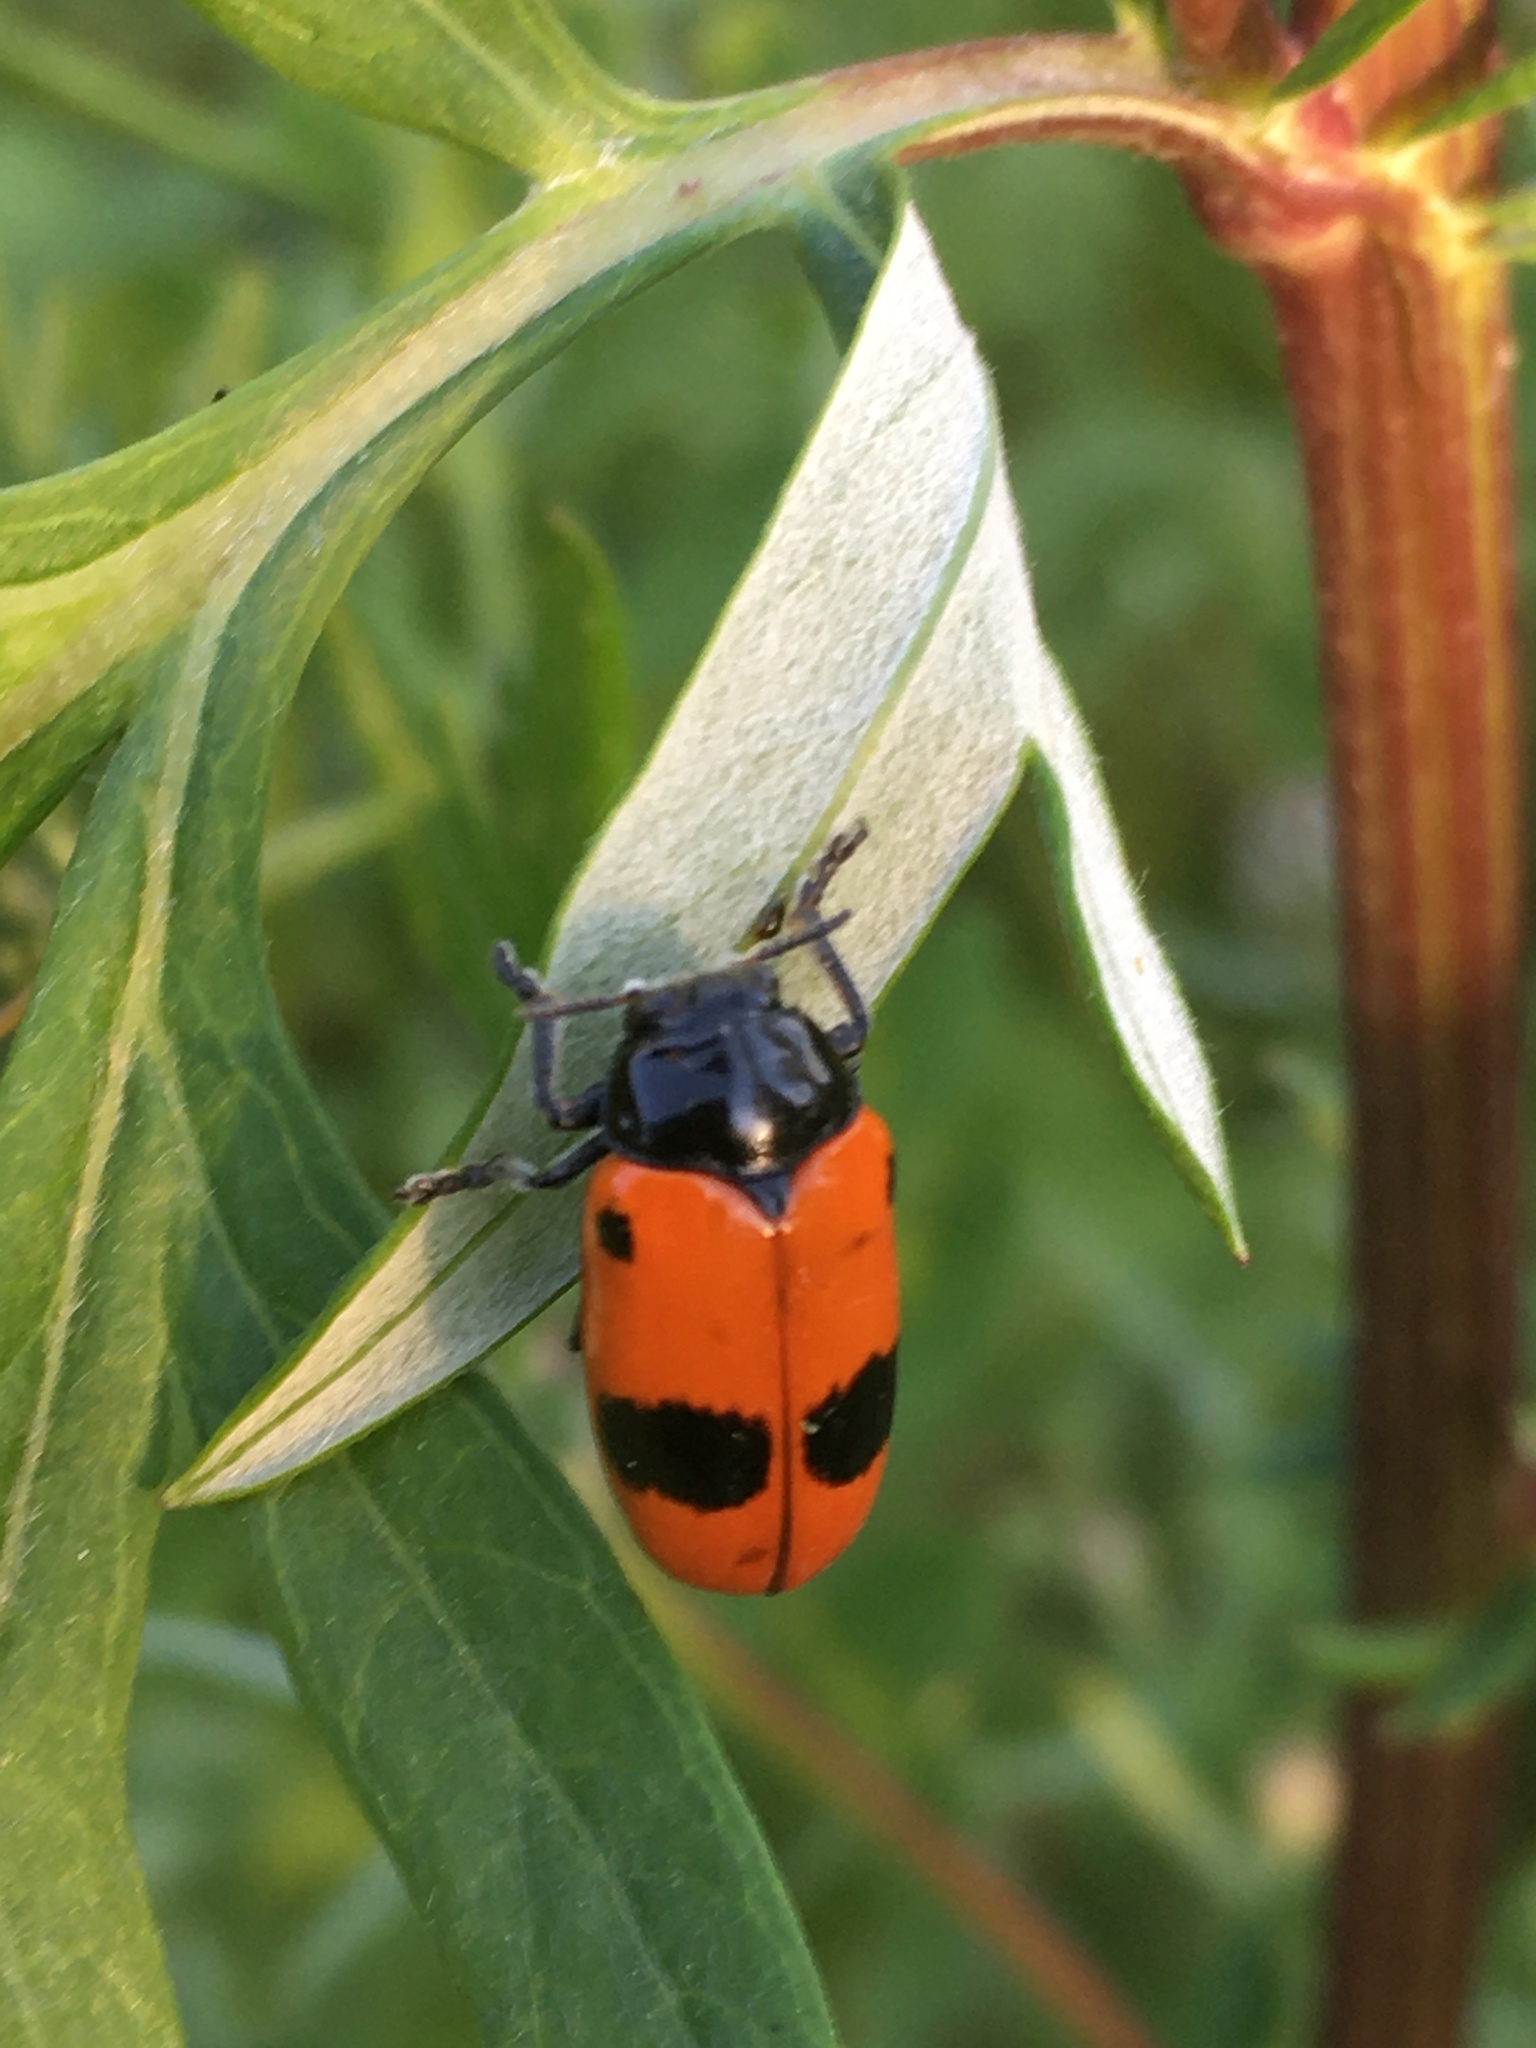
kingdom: Animalia
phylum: Arthropoda
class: Insecta
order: Coleoptera
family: Chrysomelidae
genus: Clytra
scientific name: Clytra laeviuscula
